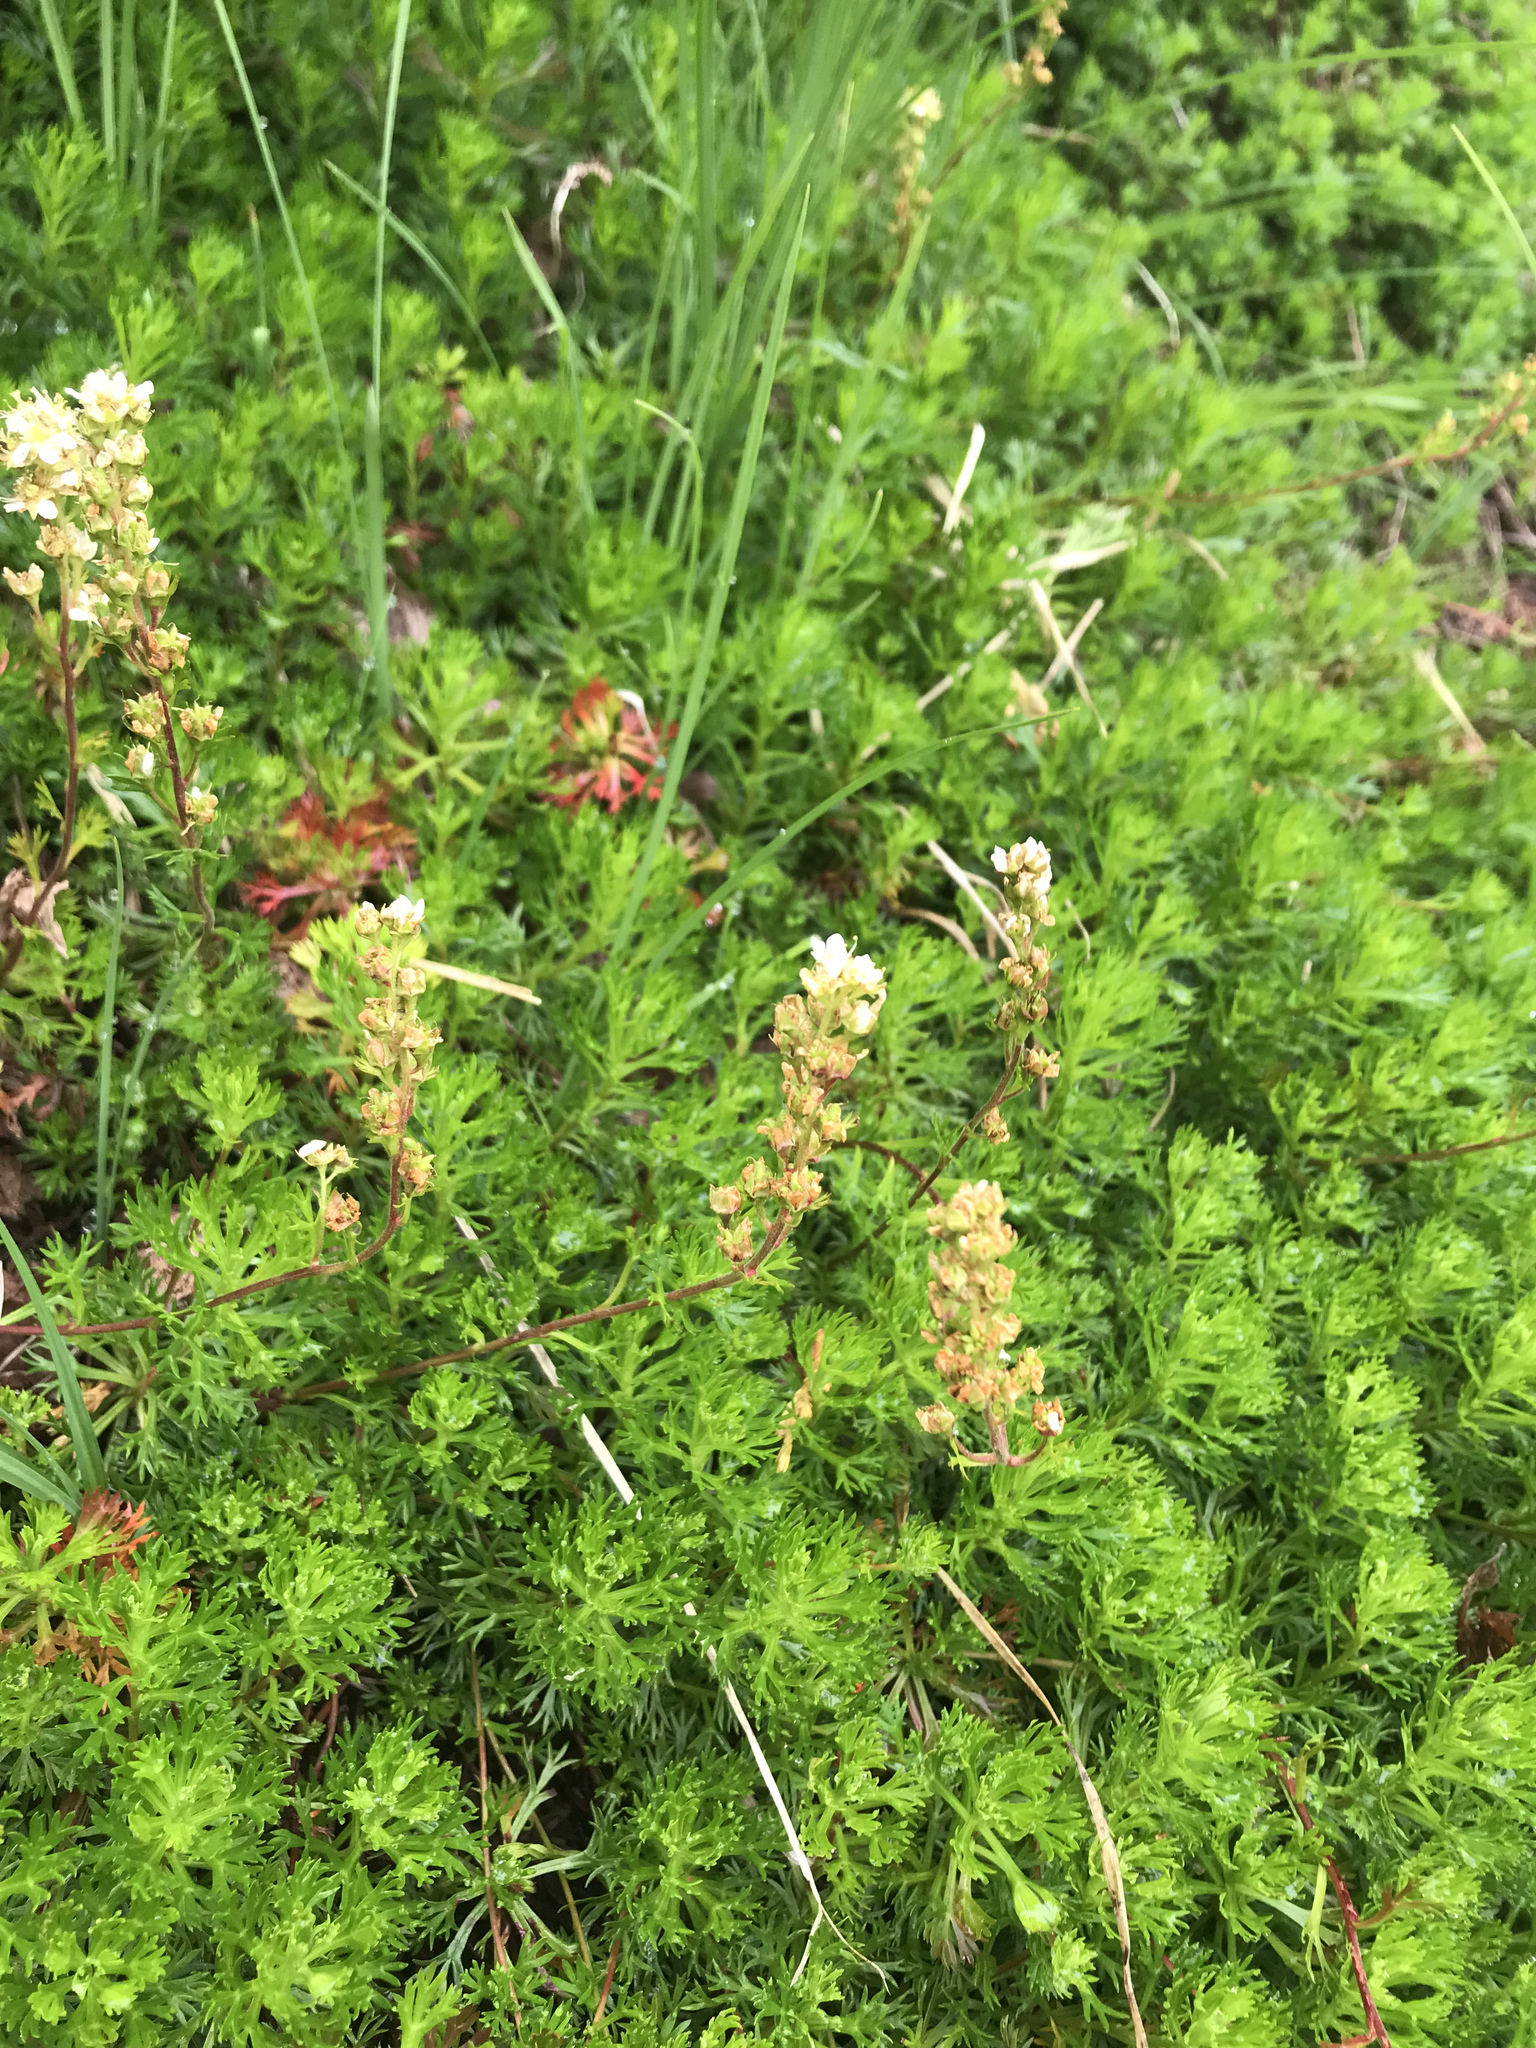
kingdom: Plantae
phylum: Tracheophyta
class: Magnoliopsida
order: Rosales
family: Rosaceae
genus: Luetkea
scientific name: Luetkea pectinata
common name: Partridgefoot
